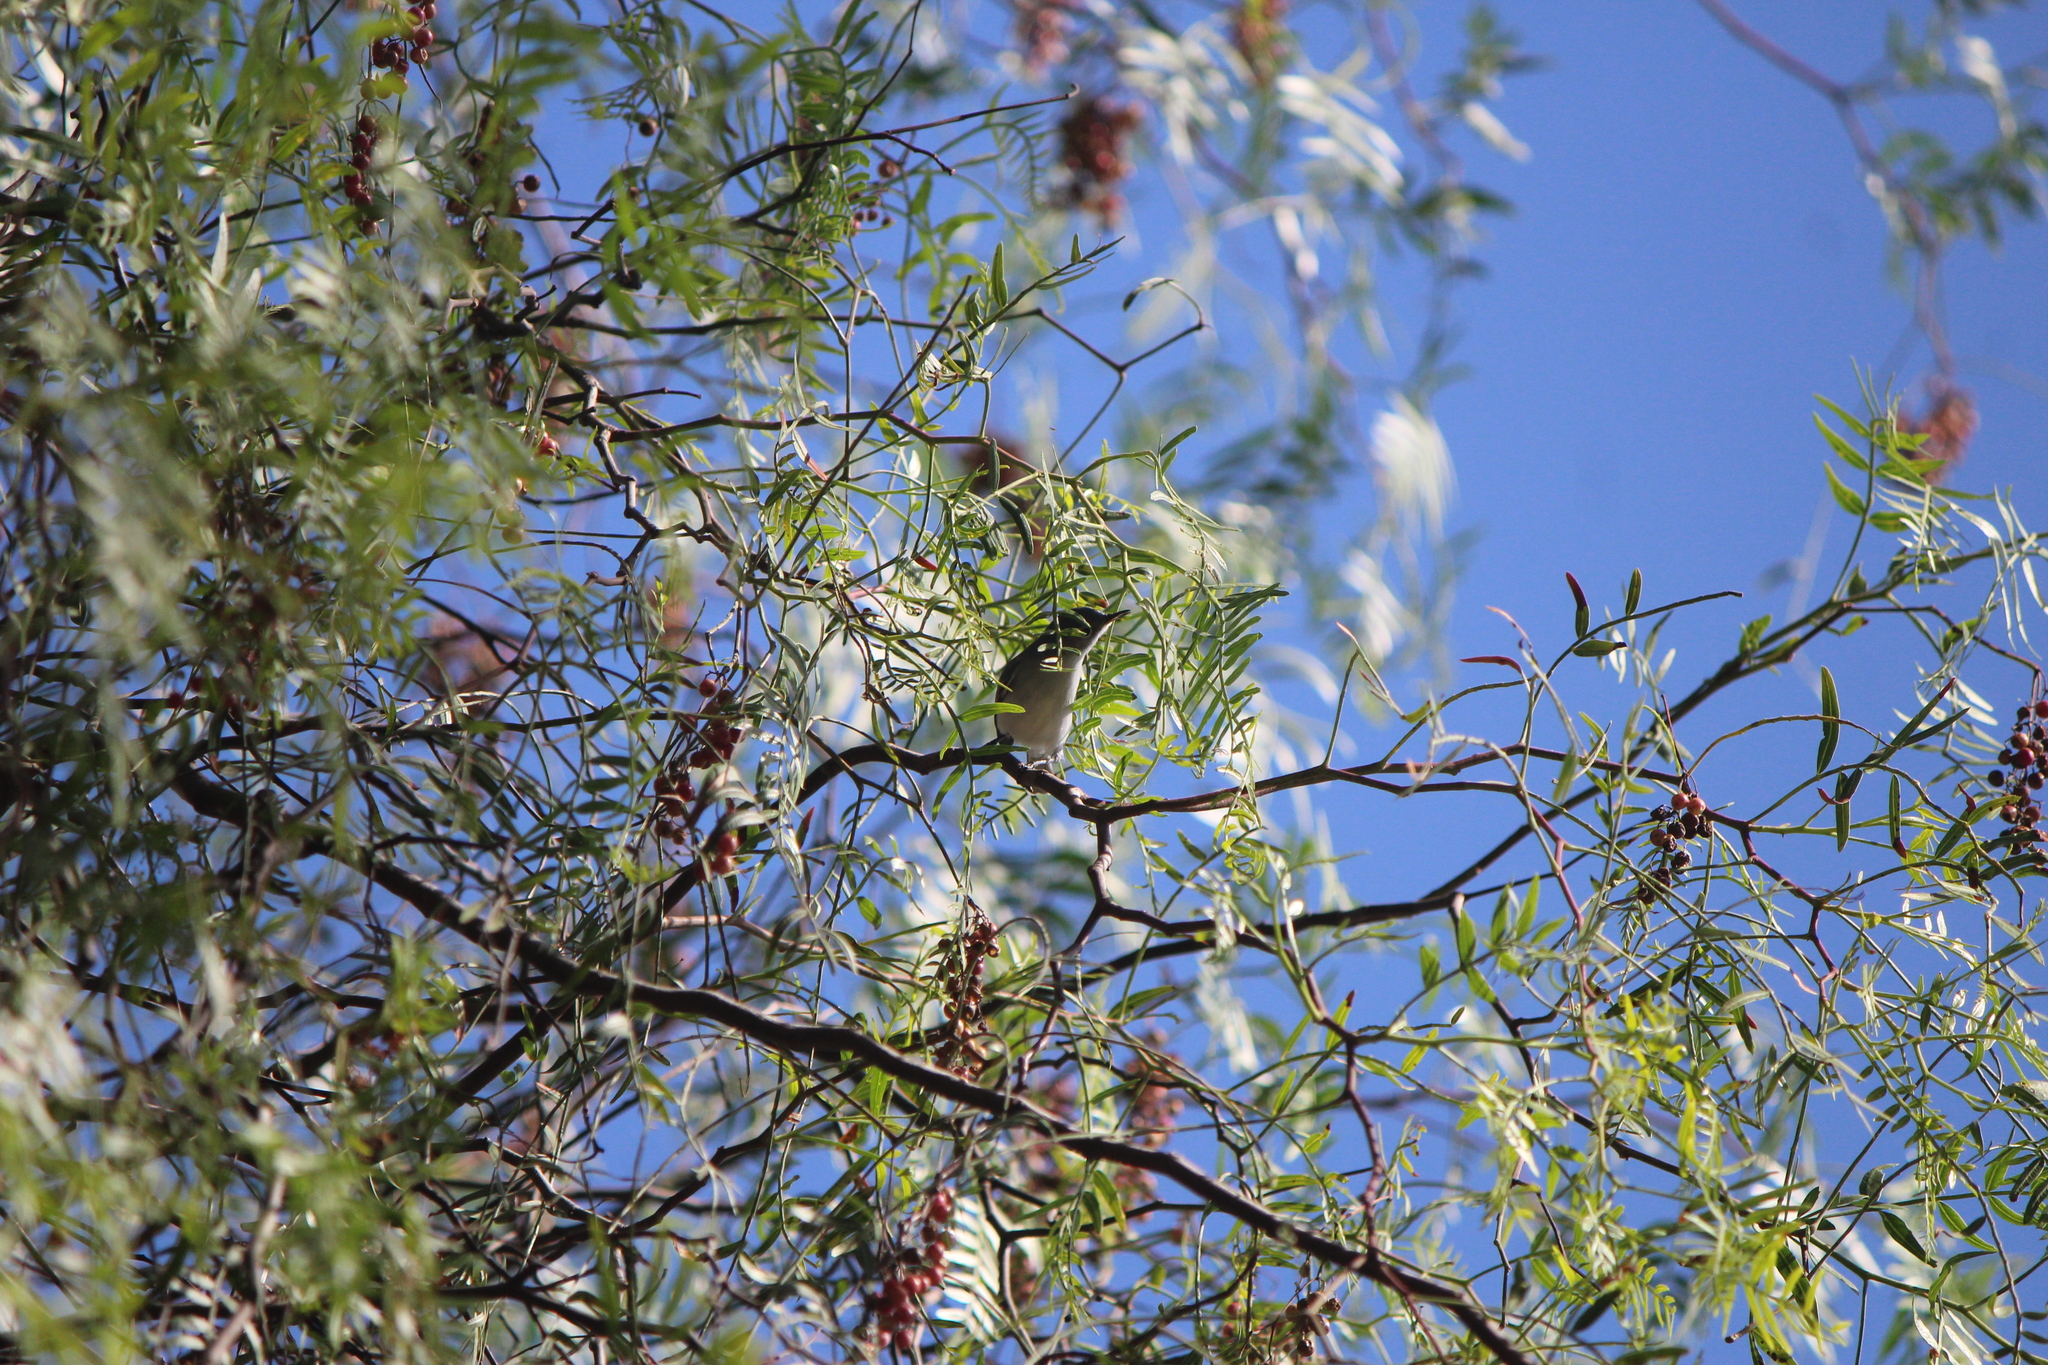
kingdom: Animalia
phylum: Chordata
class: Aves
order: Passeriformes
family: Polioptilidae
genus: Polioptila
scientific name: Polioptila caerulea
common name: Blue-gray gnatcatcher
